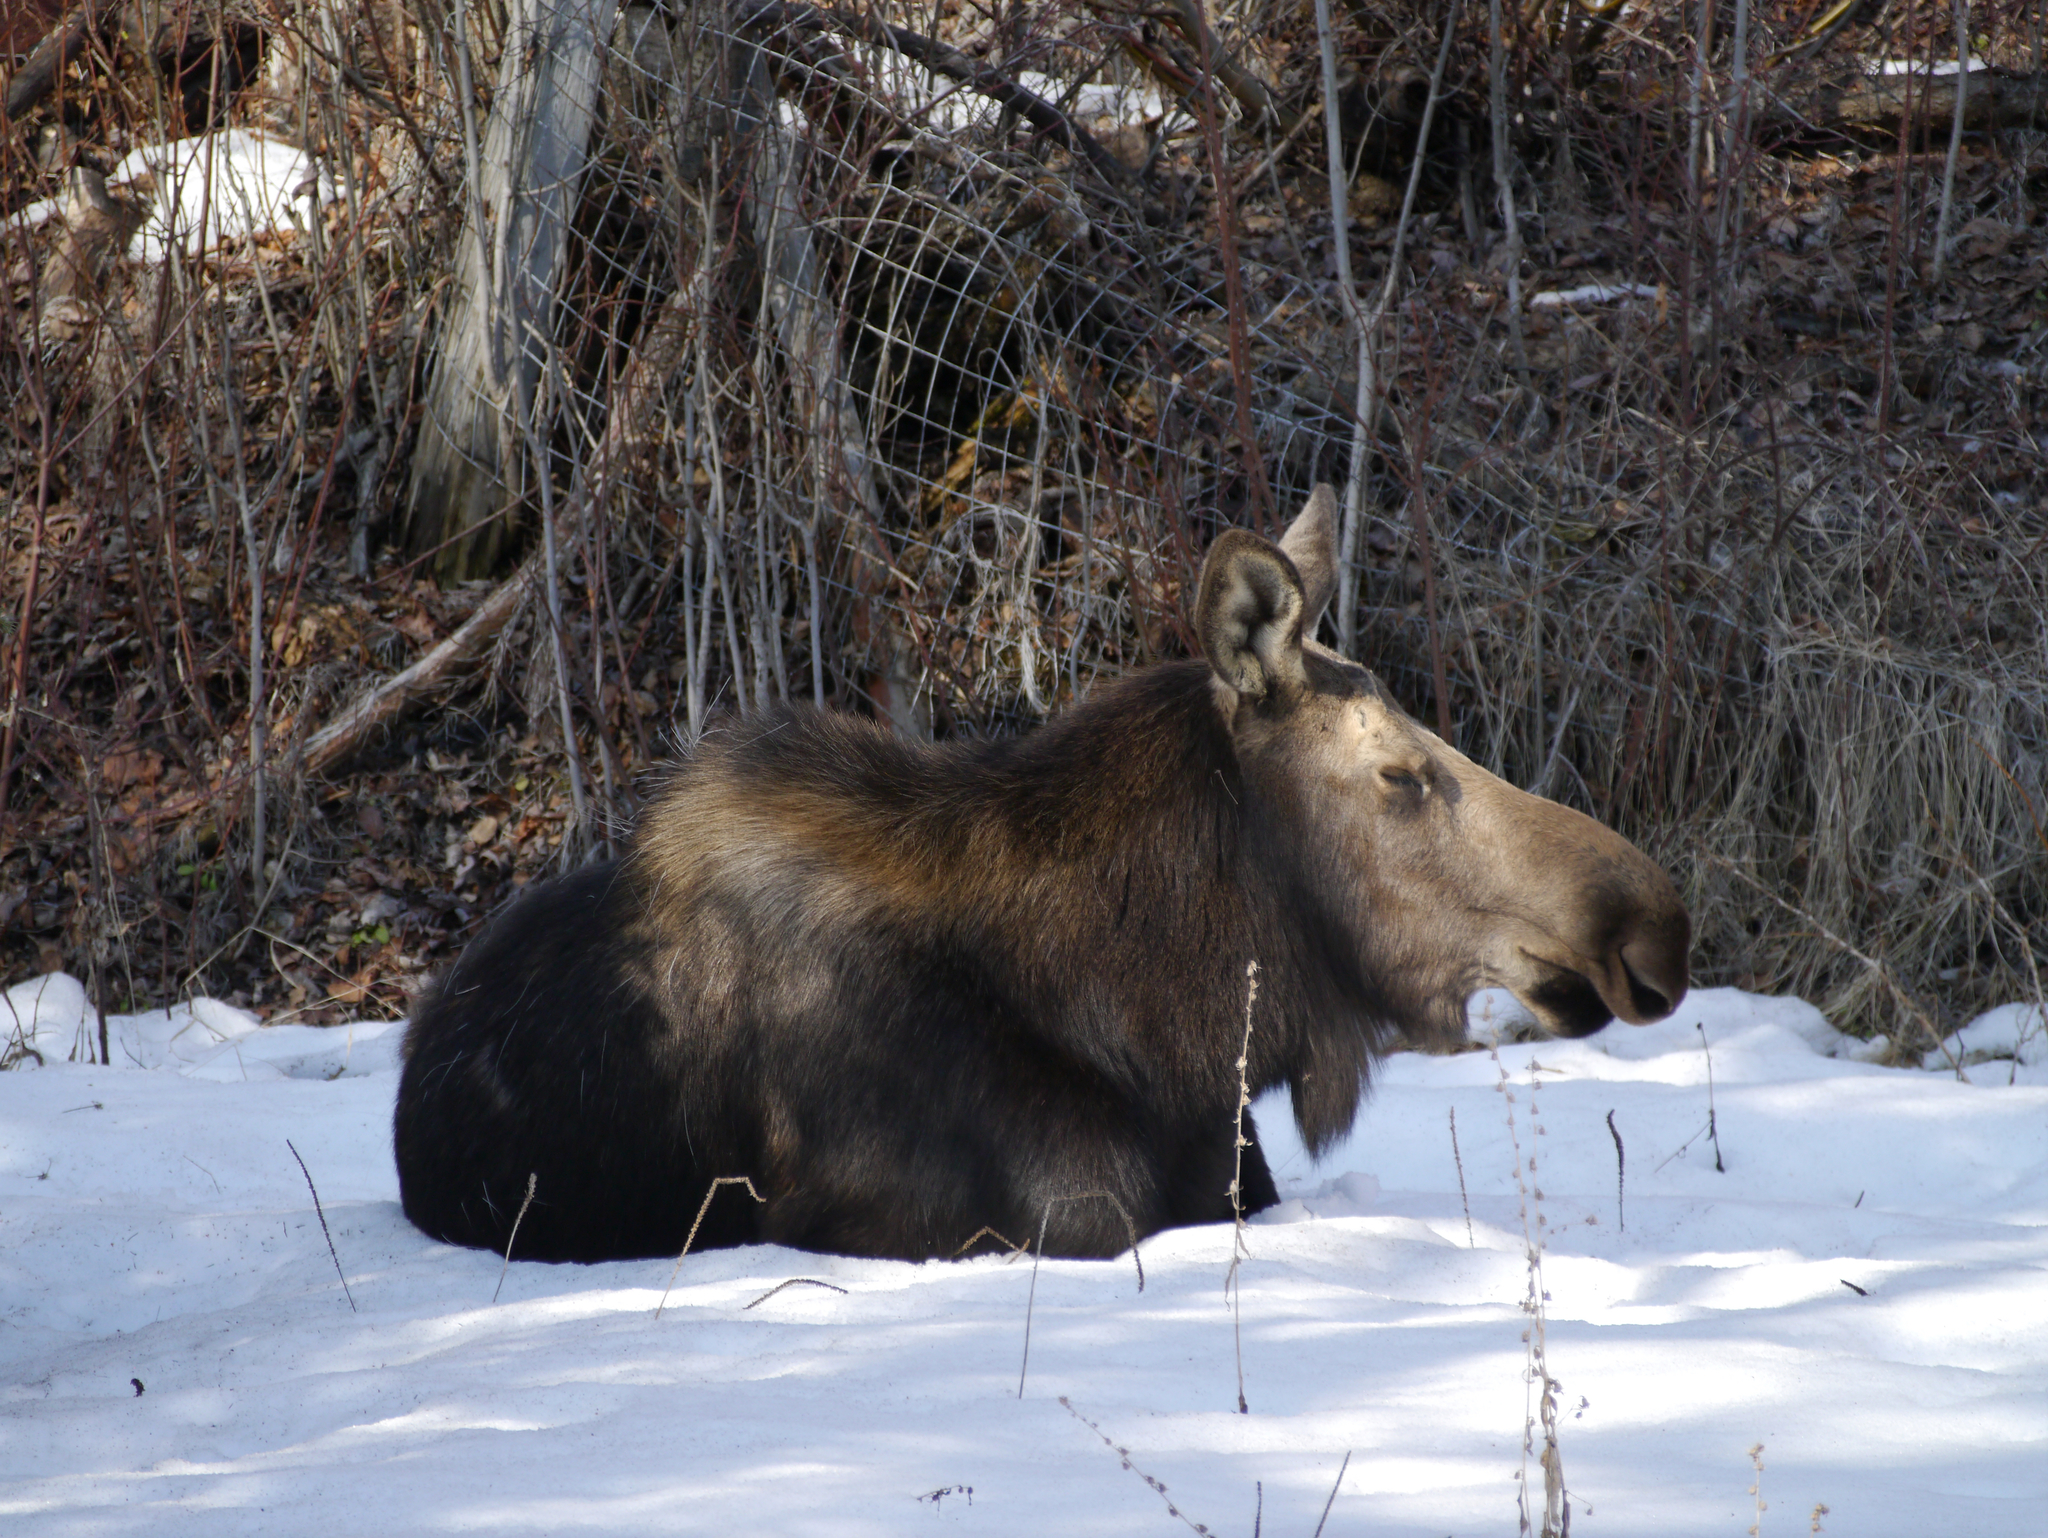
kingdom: Animalia
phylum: Chordata
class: Mammalia
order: Artiodactyla
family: Cervidae
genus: Alces
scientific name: Alces alces
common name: Moose
